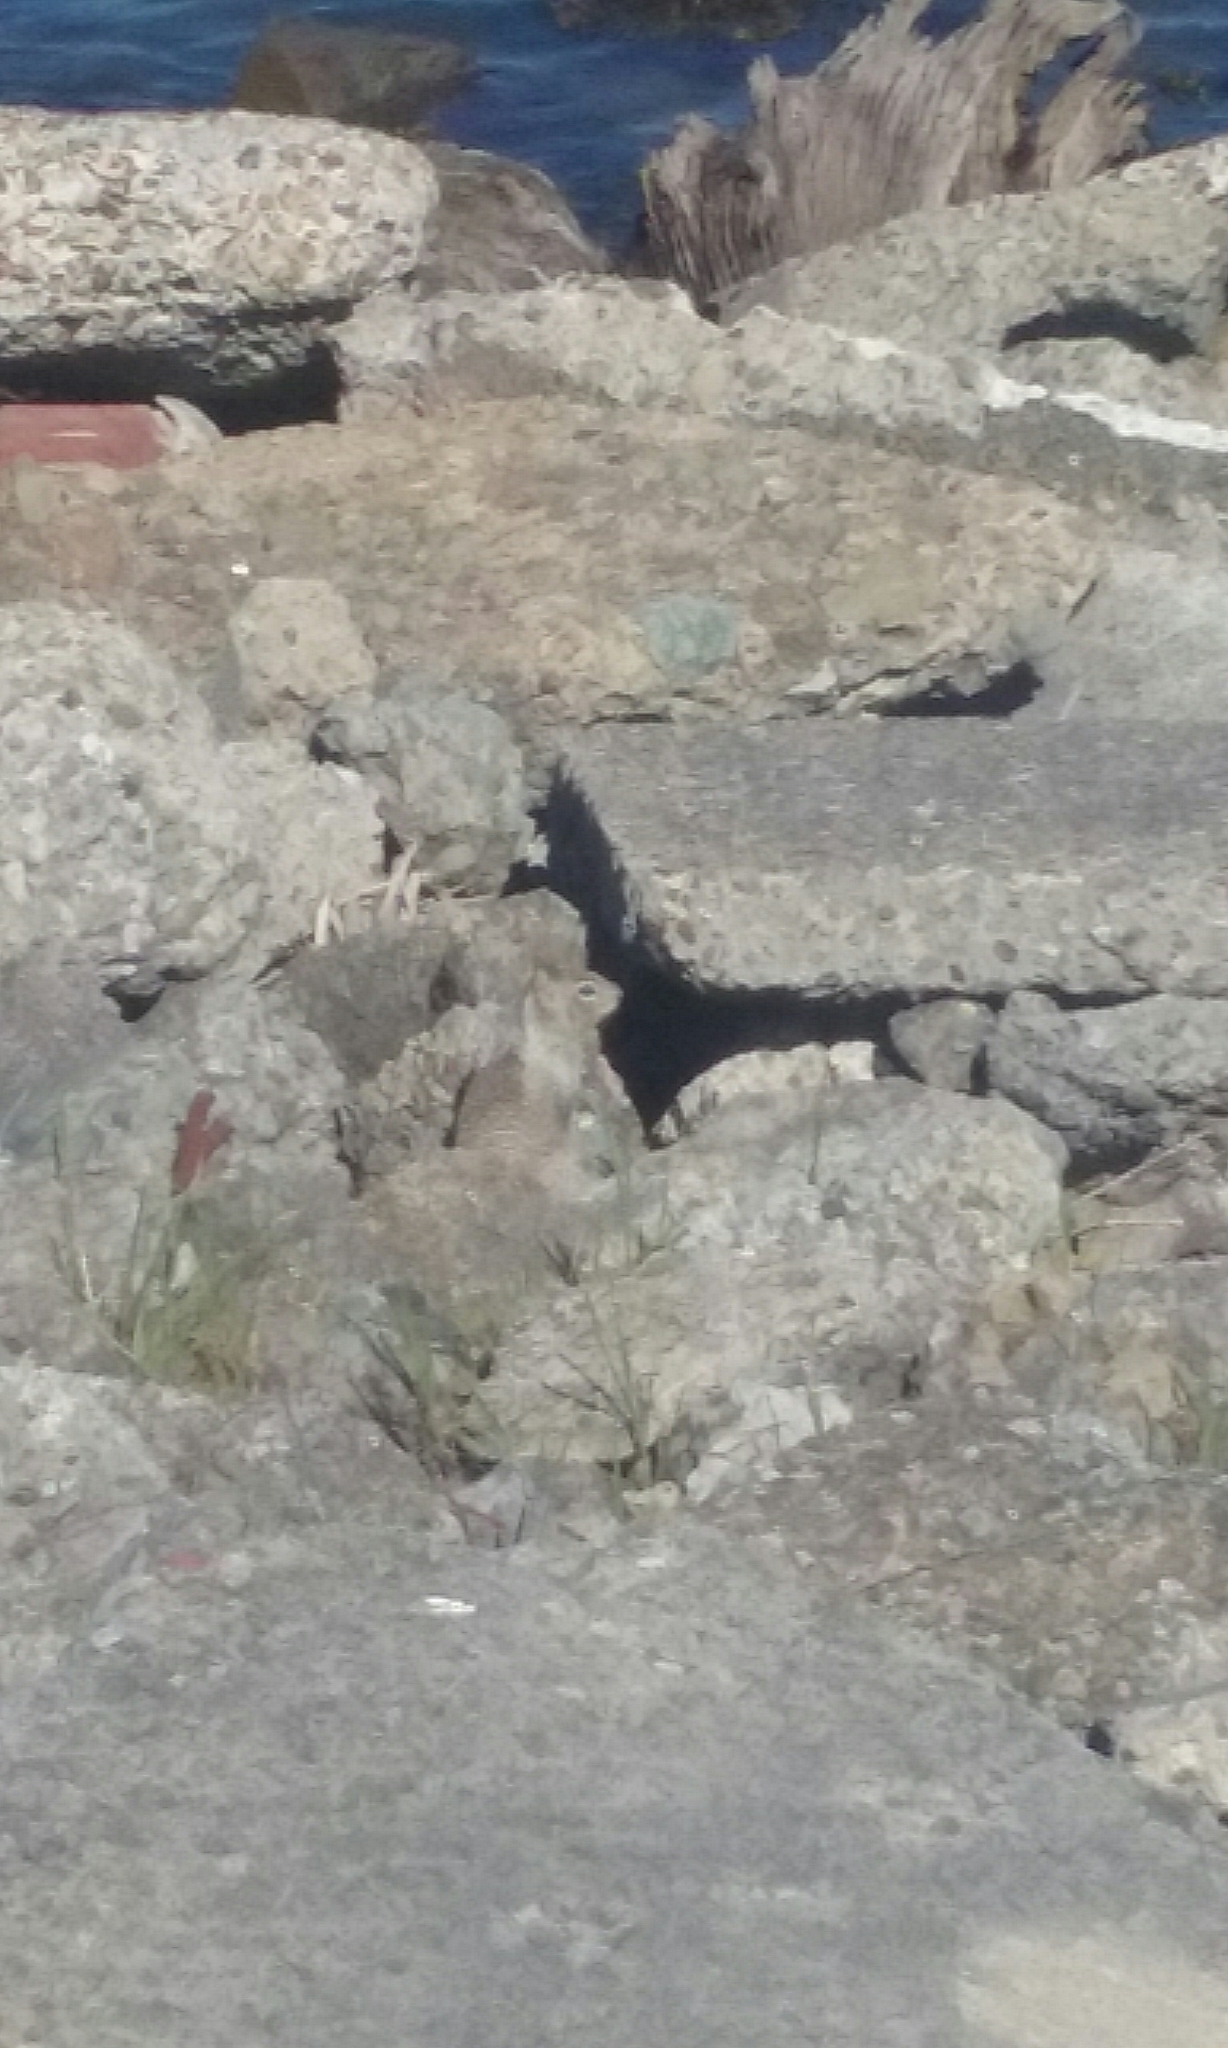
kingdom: Animalia
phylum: Chordata
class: Mammalia
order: Rodentia
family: Sciuridae
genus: Otospermophilus
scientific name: Otospermophilus beecheyi
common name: California ground squirrel
